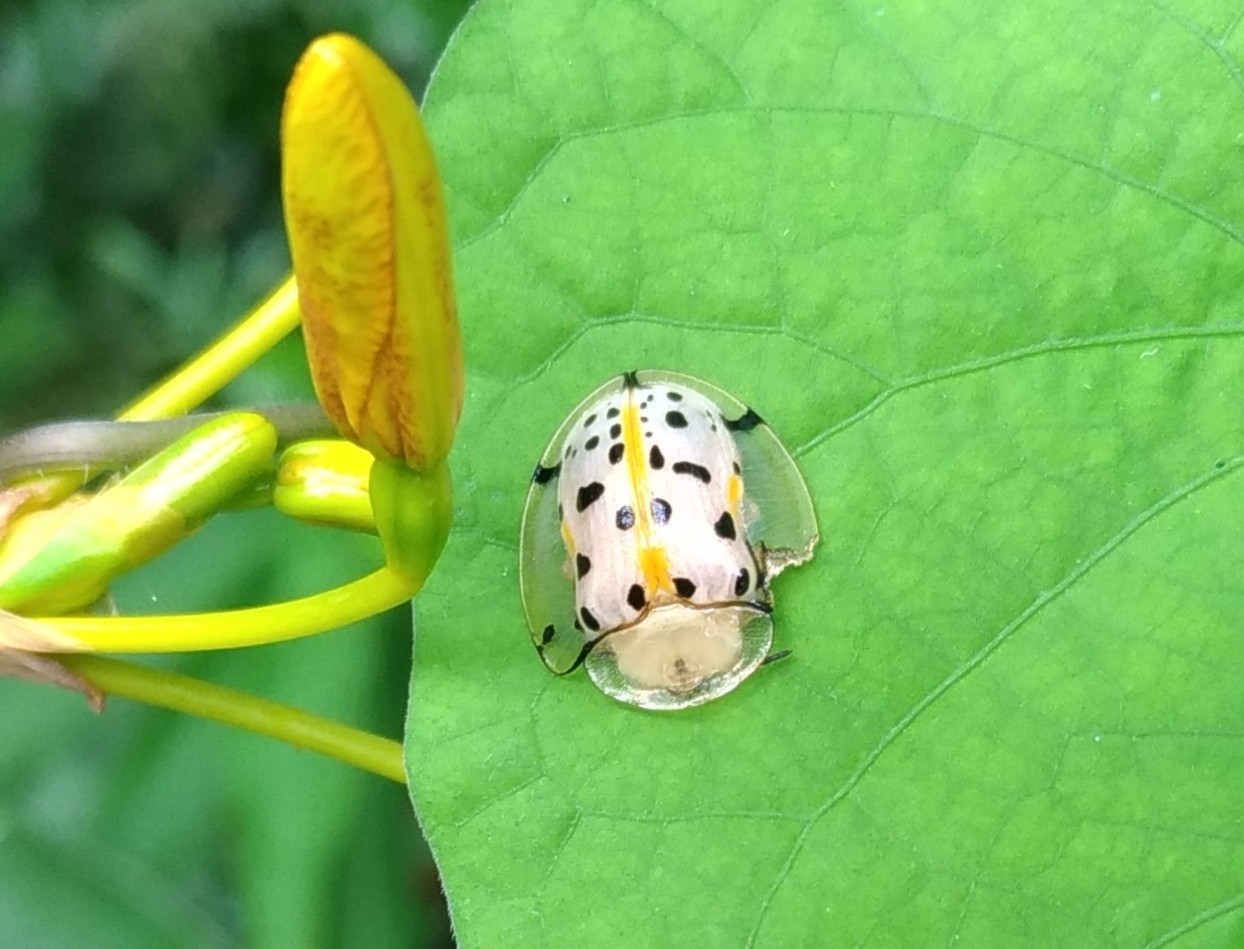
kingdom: Animalia
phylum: Arthropoda
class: Insecta
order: Coleoptera
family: Chrysomelidae
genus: Aspidimorpha
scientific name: Aspidimorpha miliaris
